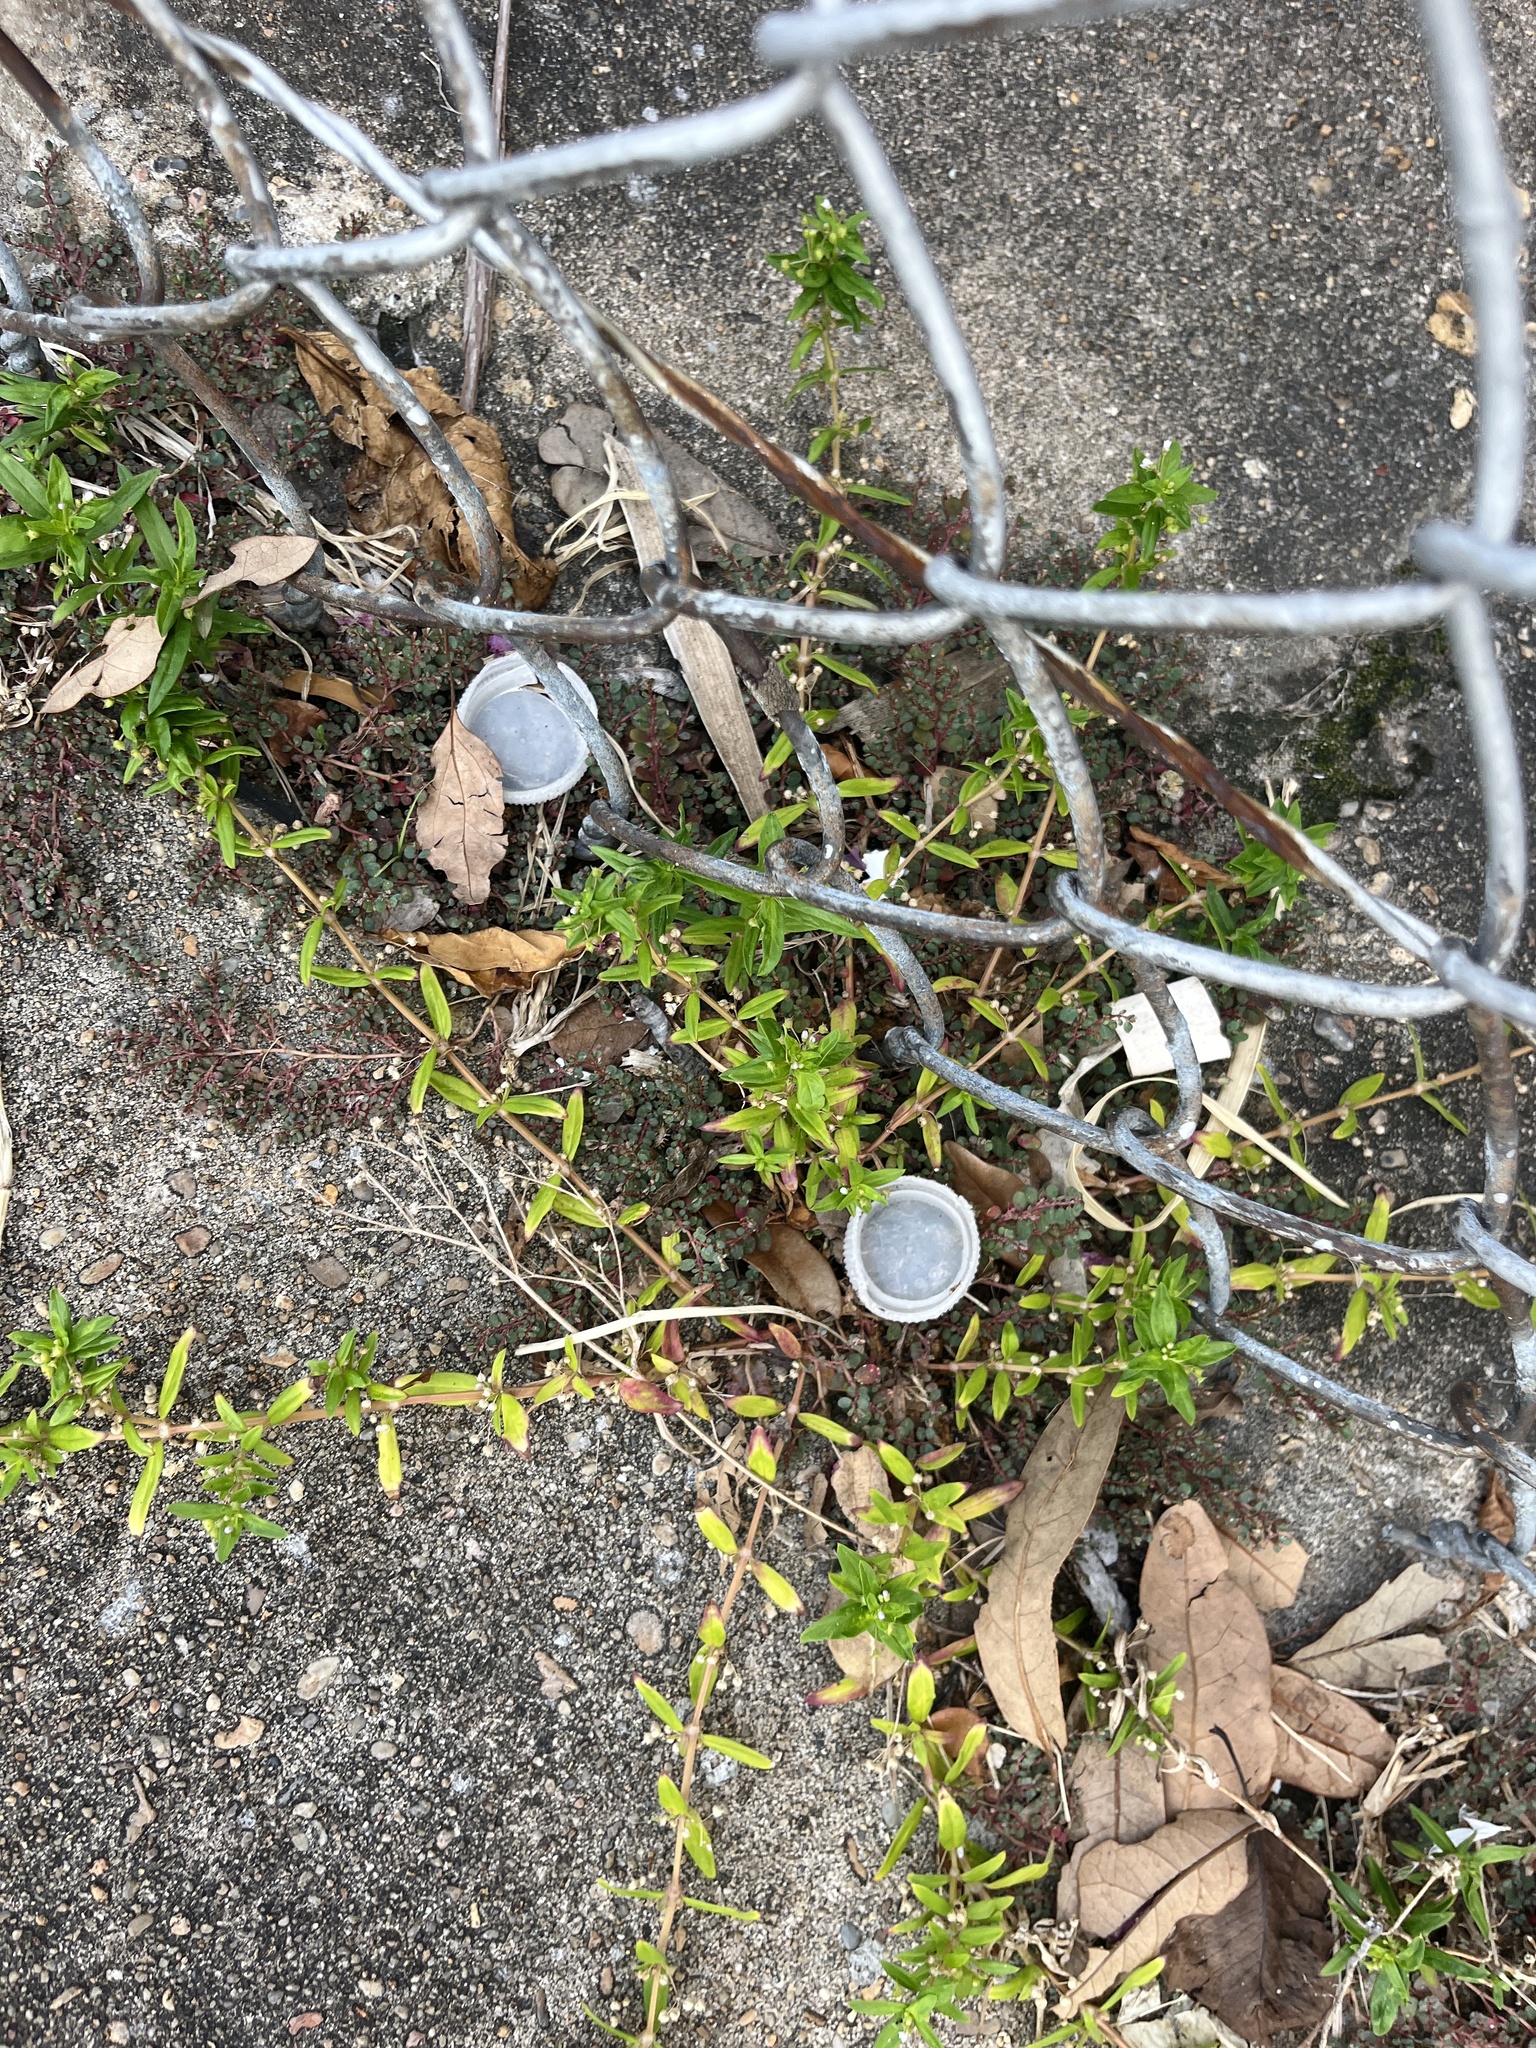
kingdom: Plantae
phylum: Tracheophyta
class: Magnoliopsida
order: Gentianales
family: Rubiaceae
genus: Oldenlandia
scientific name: Oldenlandia corymbosa
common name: Flat-top mille graines
